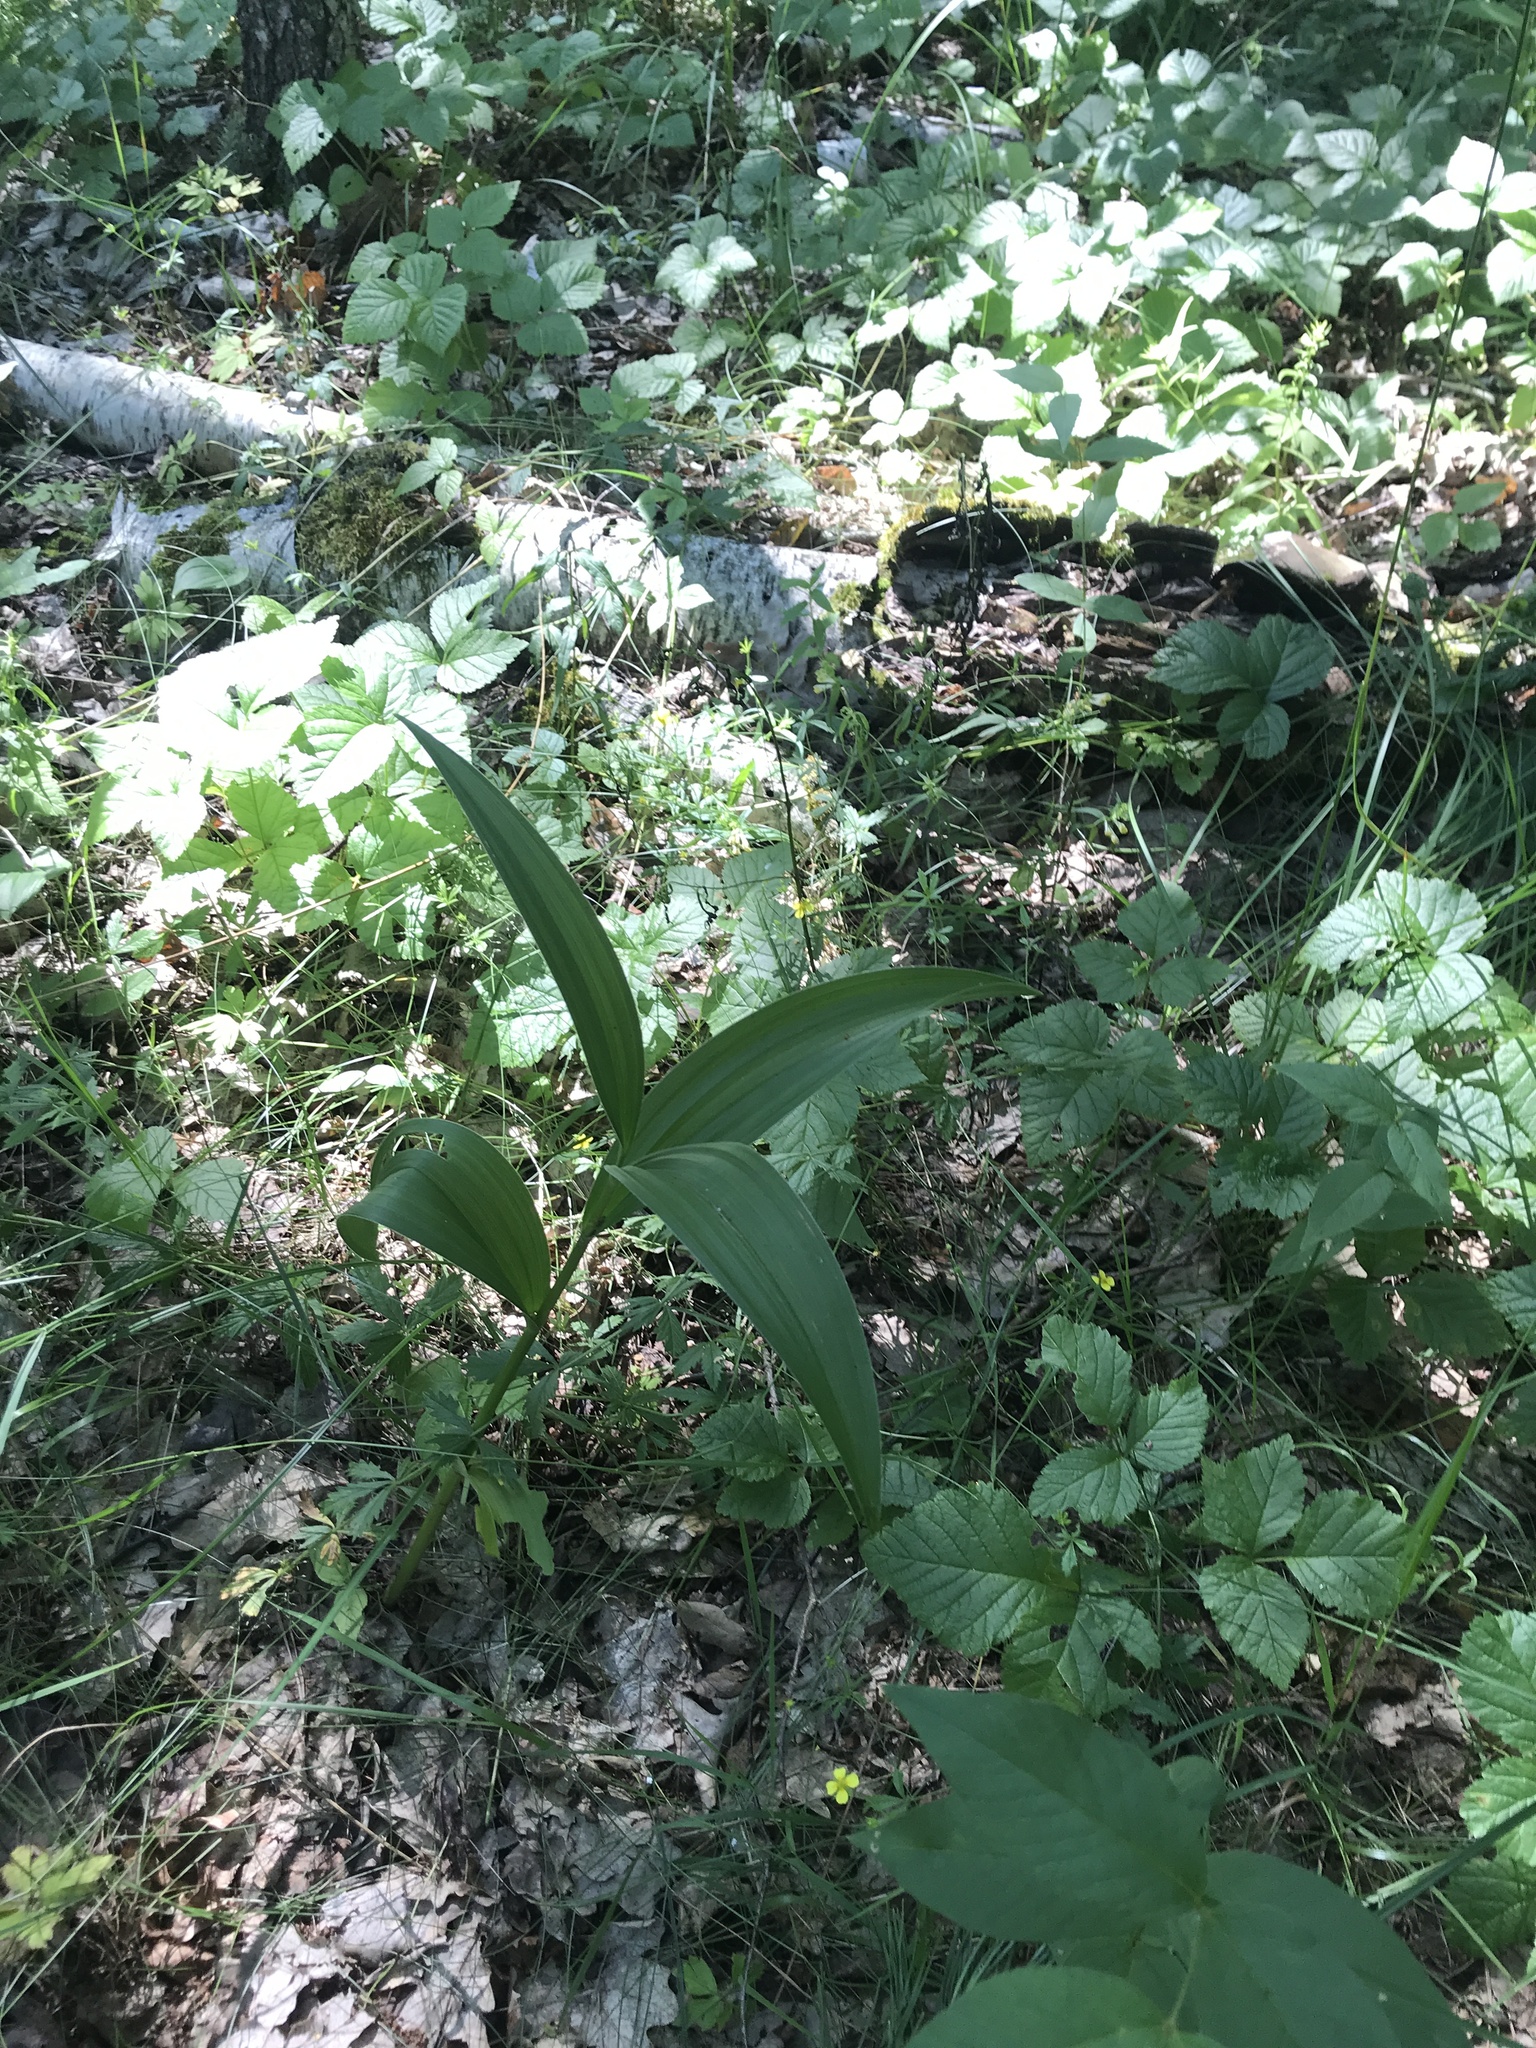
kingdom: Plantae
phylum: Tracheophyta
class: Liliopsida
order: Liliales
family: Melanthiaceae
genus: Veratrum
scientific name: Veratrum lobelianum
